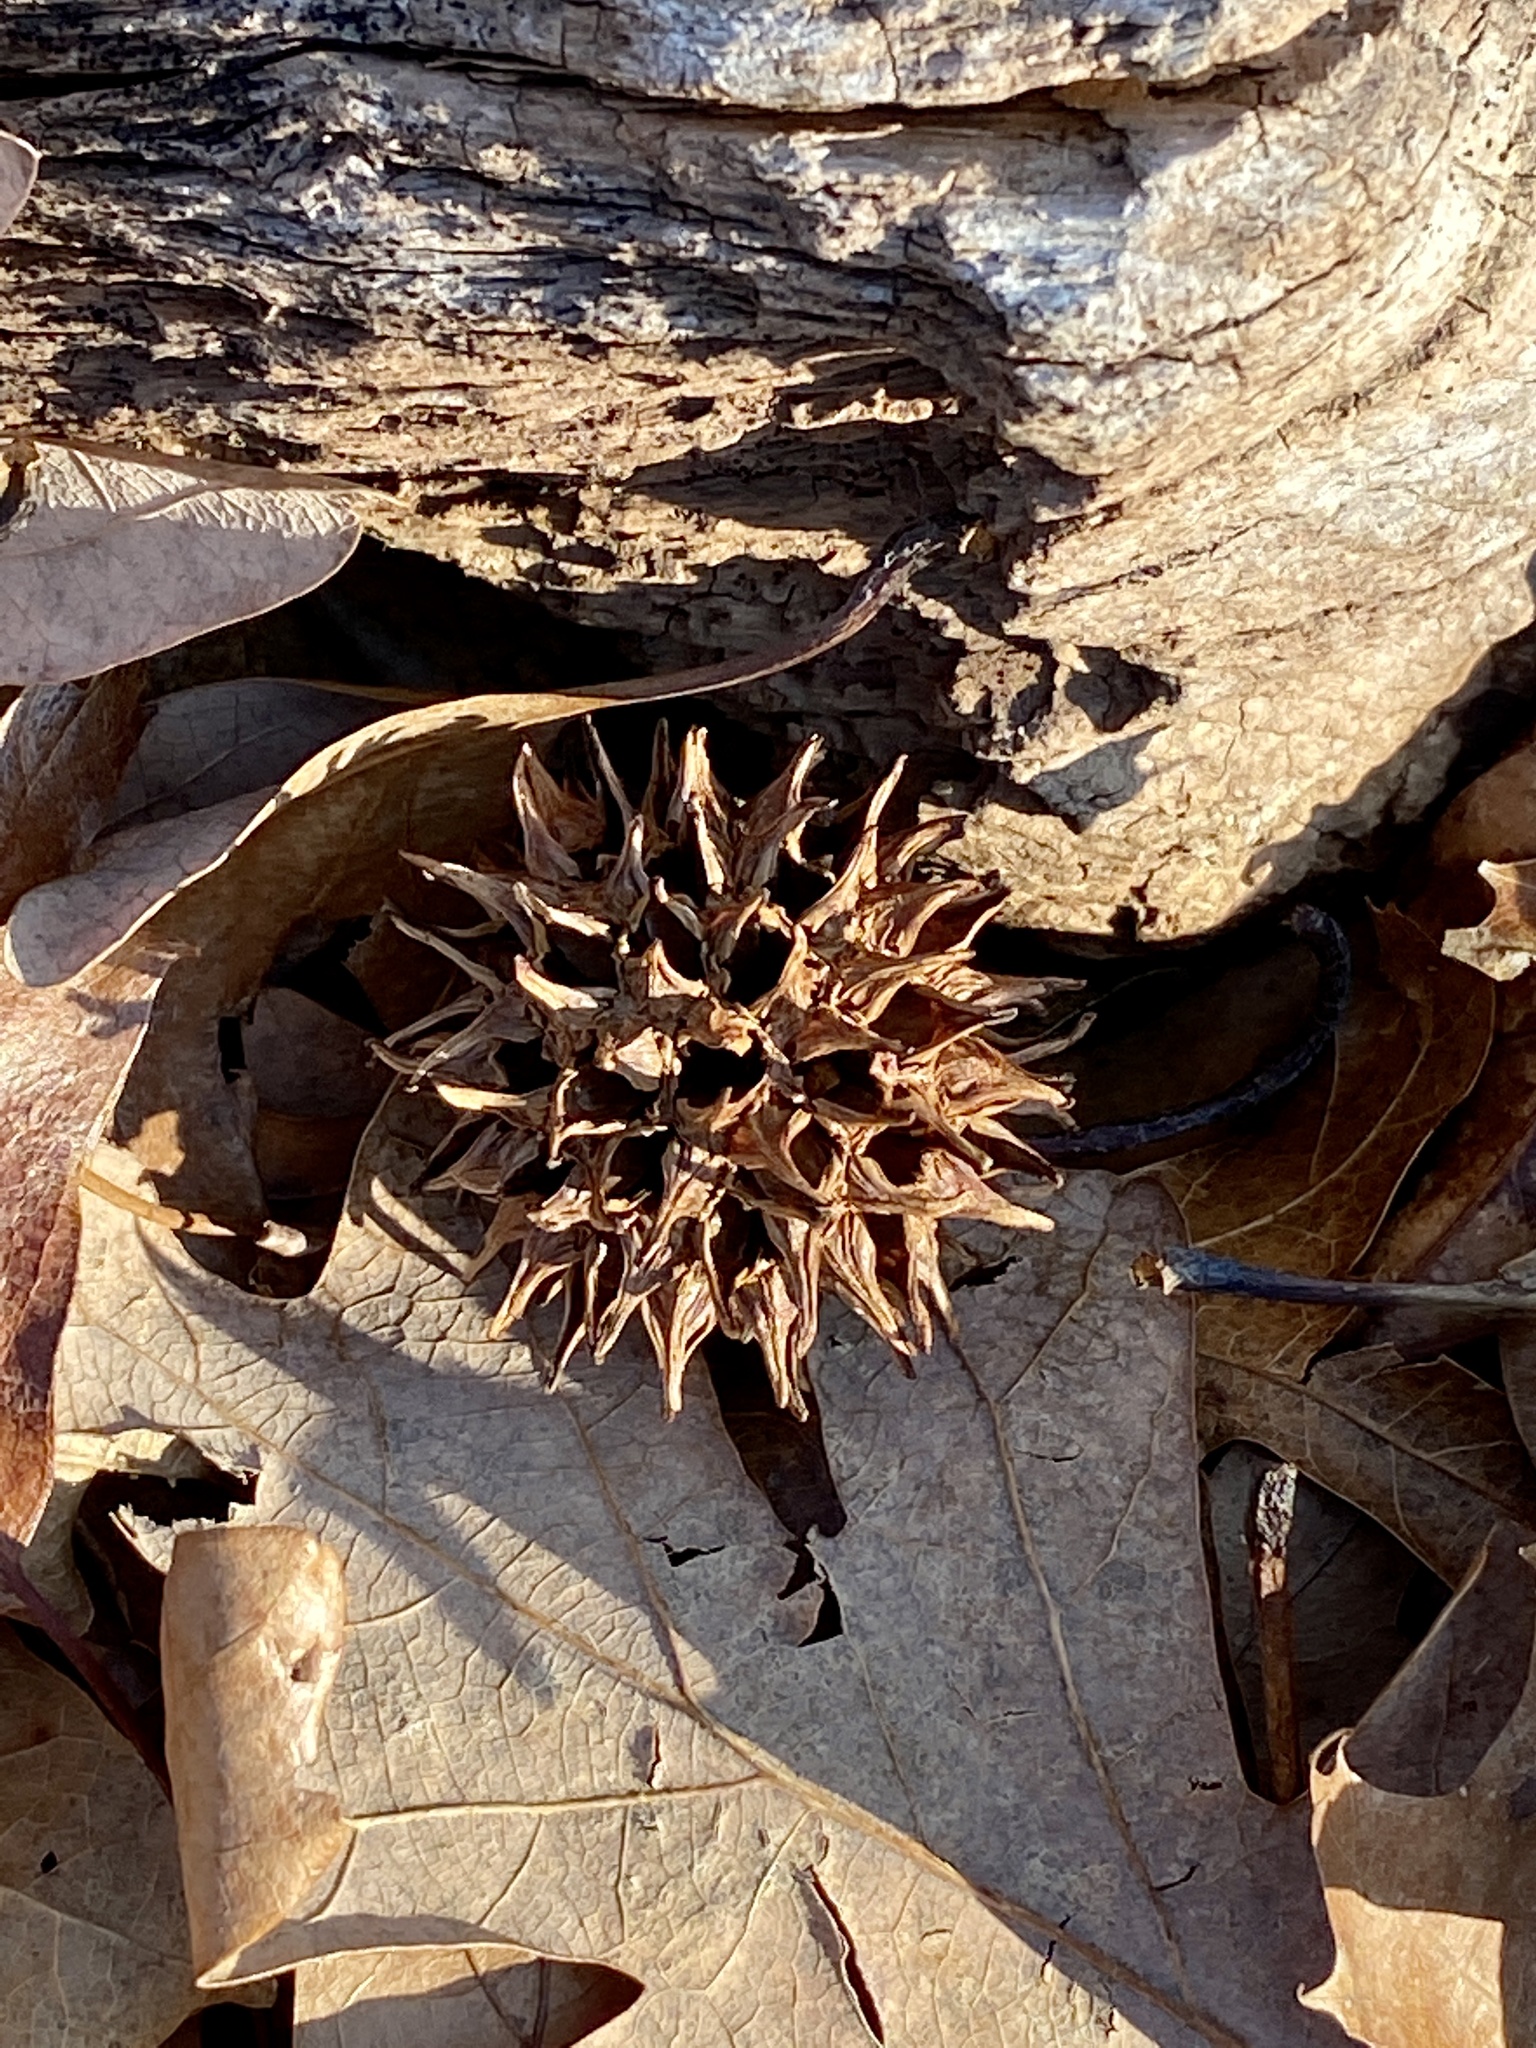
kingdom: Plantae
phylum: Tracheophyta
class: Magnoliopsida
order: Saxifragales
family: Altingiaceae
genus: Liquidambar
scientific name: Liquidambar styraciflua
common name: Sweet gum
